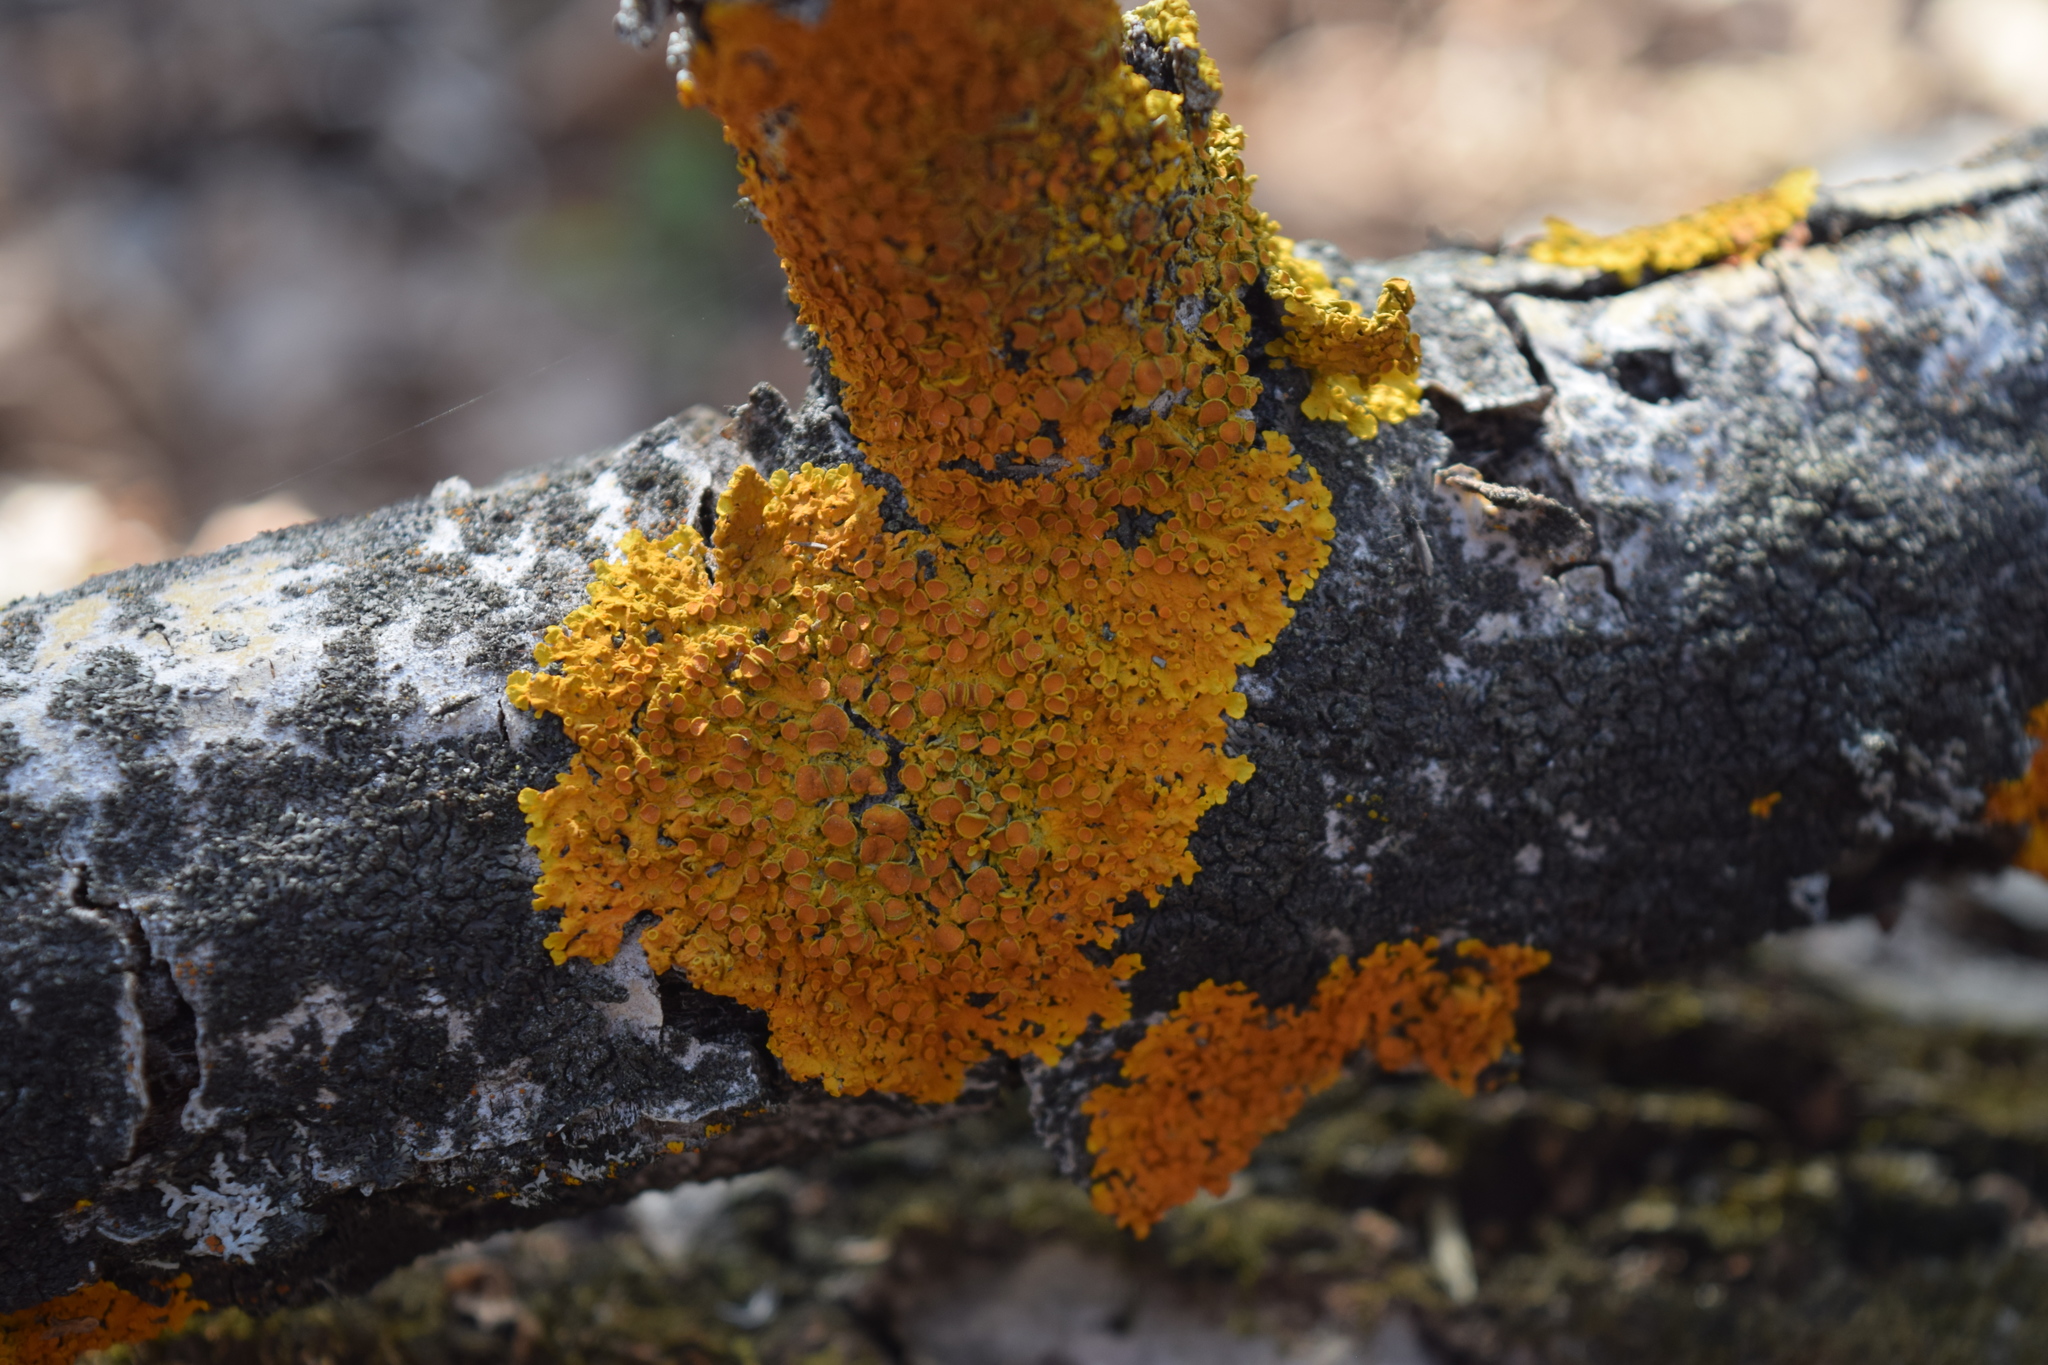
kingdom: Fungi
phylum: Ascomycota
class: Lecanoromycetes
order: Teloschistales
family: Teloschistaceae
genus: Xanthoria
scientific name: Xanthoria parietina
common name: Common orange lichen
